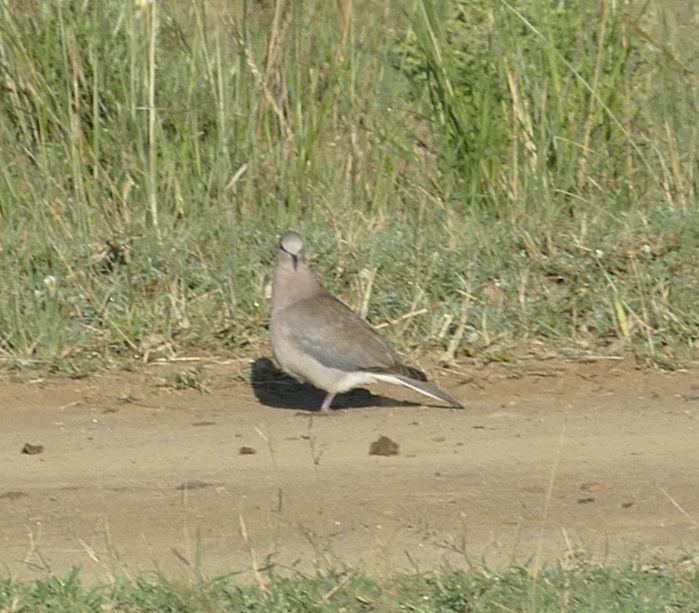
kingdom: Animalia
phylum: Chordata
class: Aves
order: Columbiformes
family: Columbidae
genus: Streptopelia
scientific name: Streptopelia capicola
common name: Ring-necked dove
